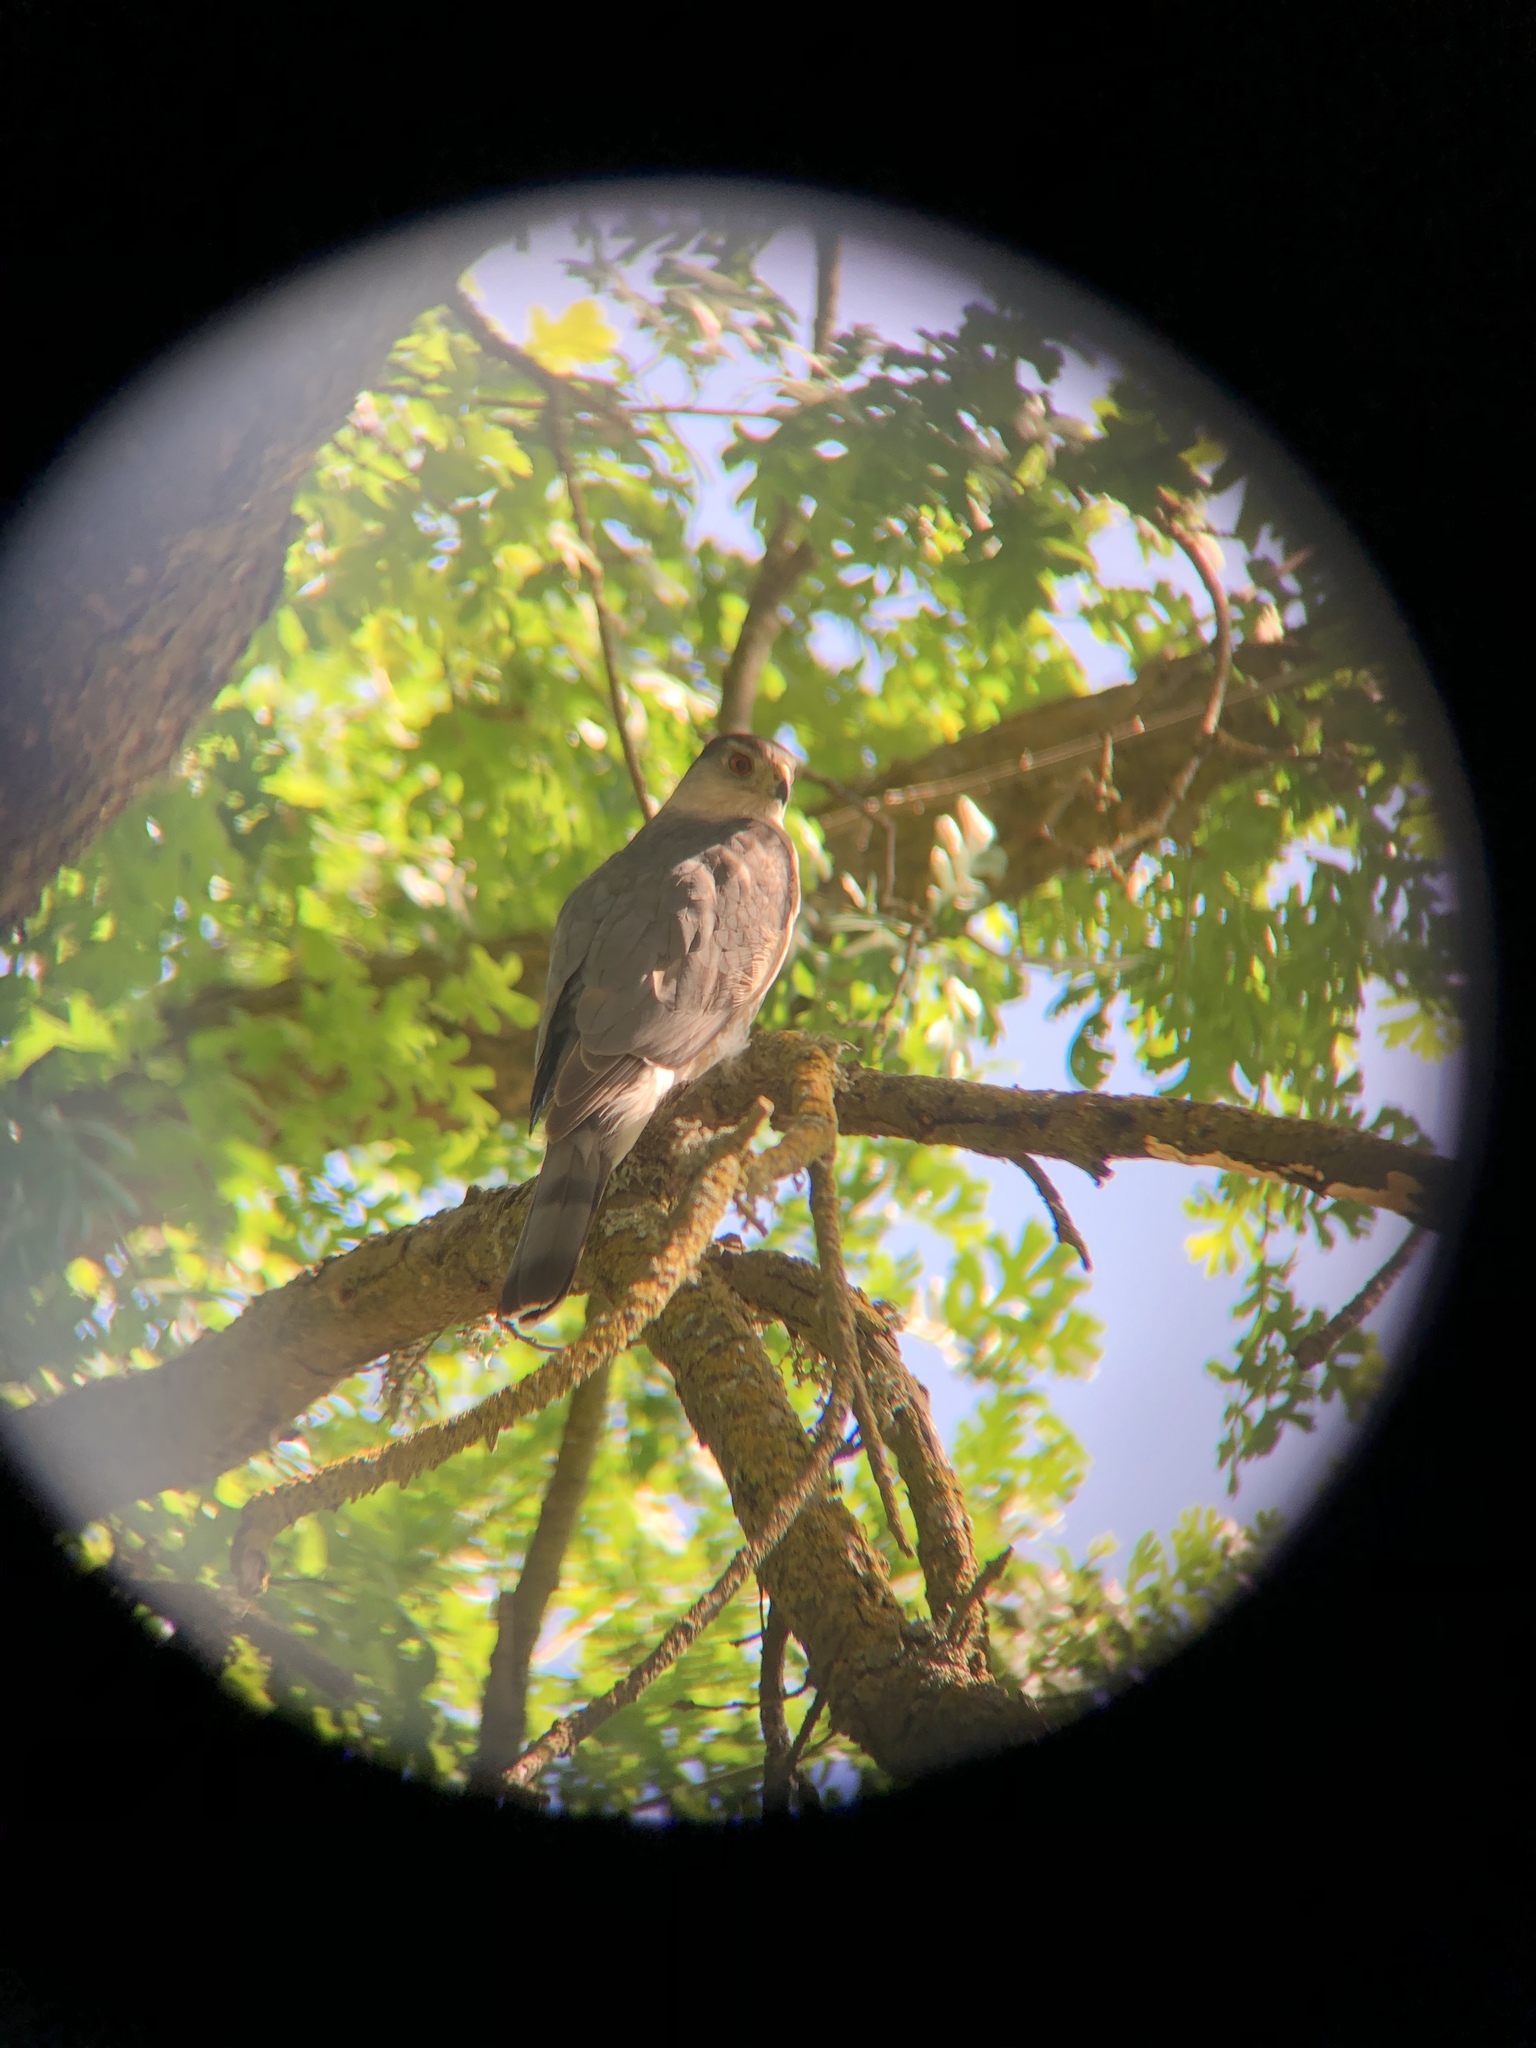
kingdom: Animalia
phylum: Chordata
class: Aves
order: Accipitriformes
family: Accipitridae
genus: Accipiter
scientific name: Accipiter cooperii
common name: Cooper's hawk
